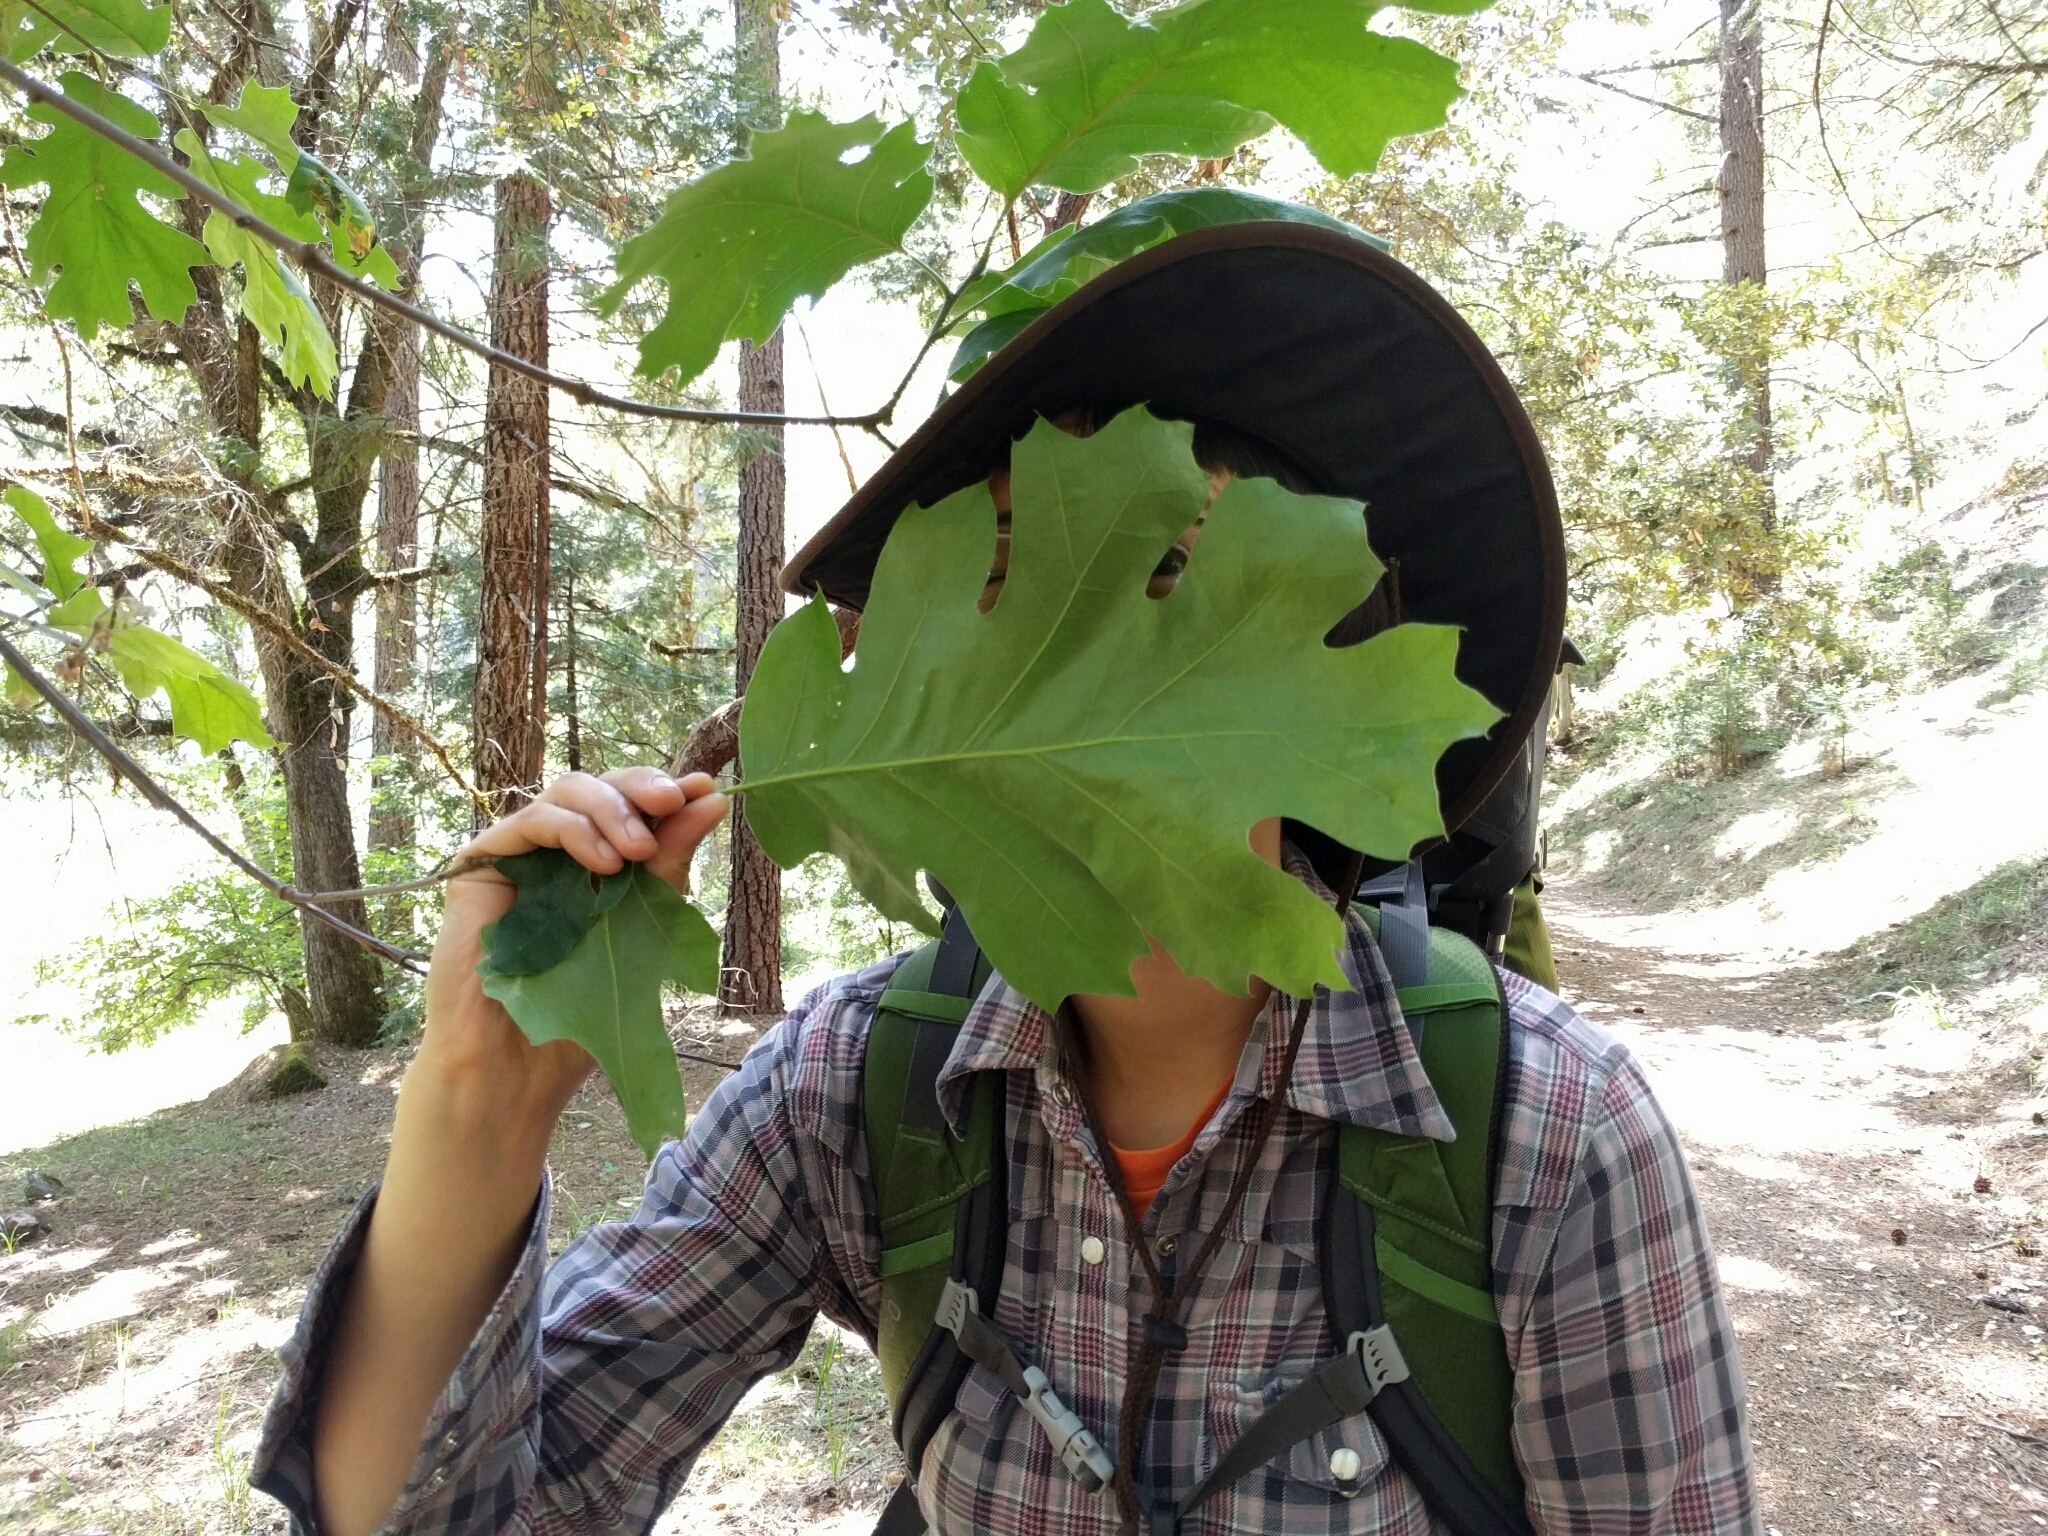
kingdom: Plantae
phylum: Tracheophyta
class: Magnoliopsida
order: Fagales
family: Fagaceae
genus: Quercus
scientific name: Quercus kelloggii
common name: California black oak
